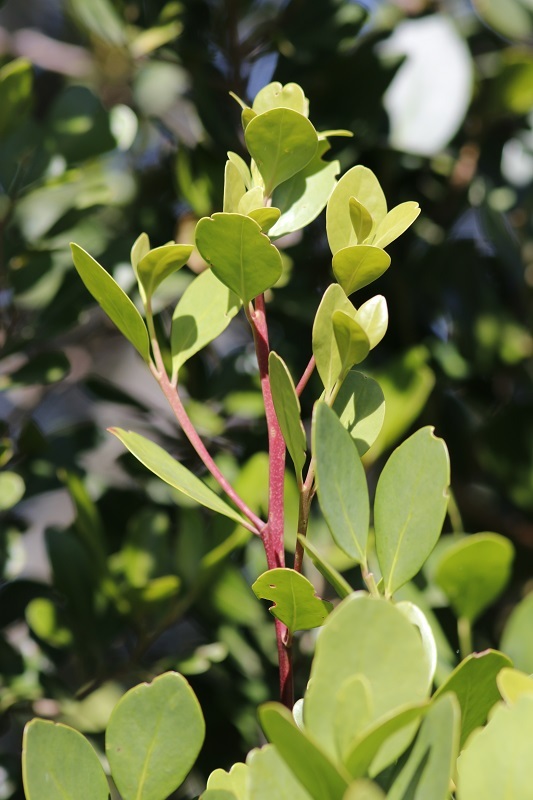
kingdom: Plantae
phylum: Tracheophyta
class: Magnoliopsida
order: Celastrales
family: Celastraceae
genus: Pterocelastrus
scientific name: Pterocelastrus tricuspidatus
